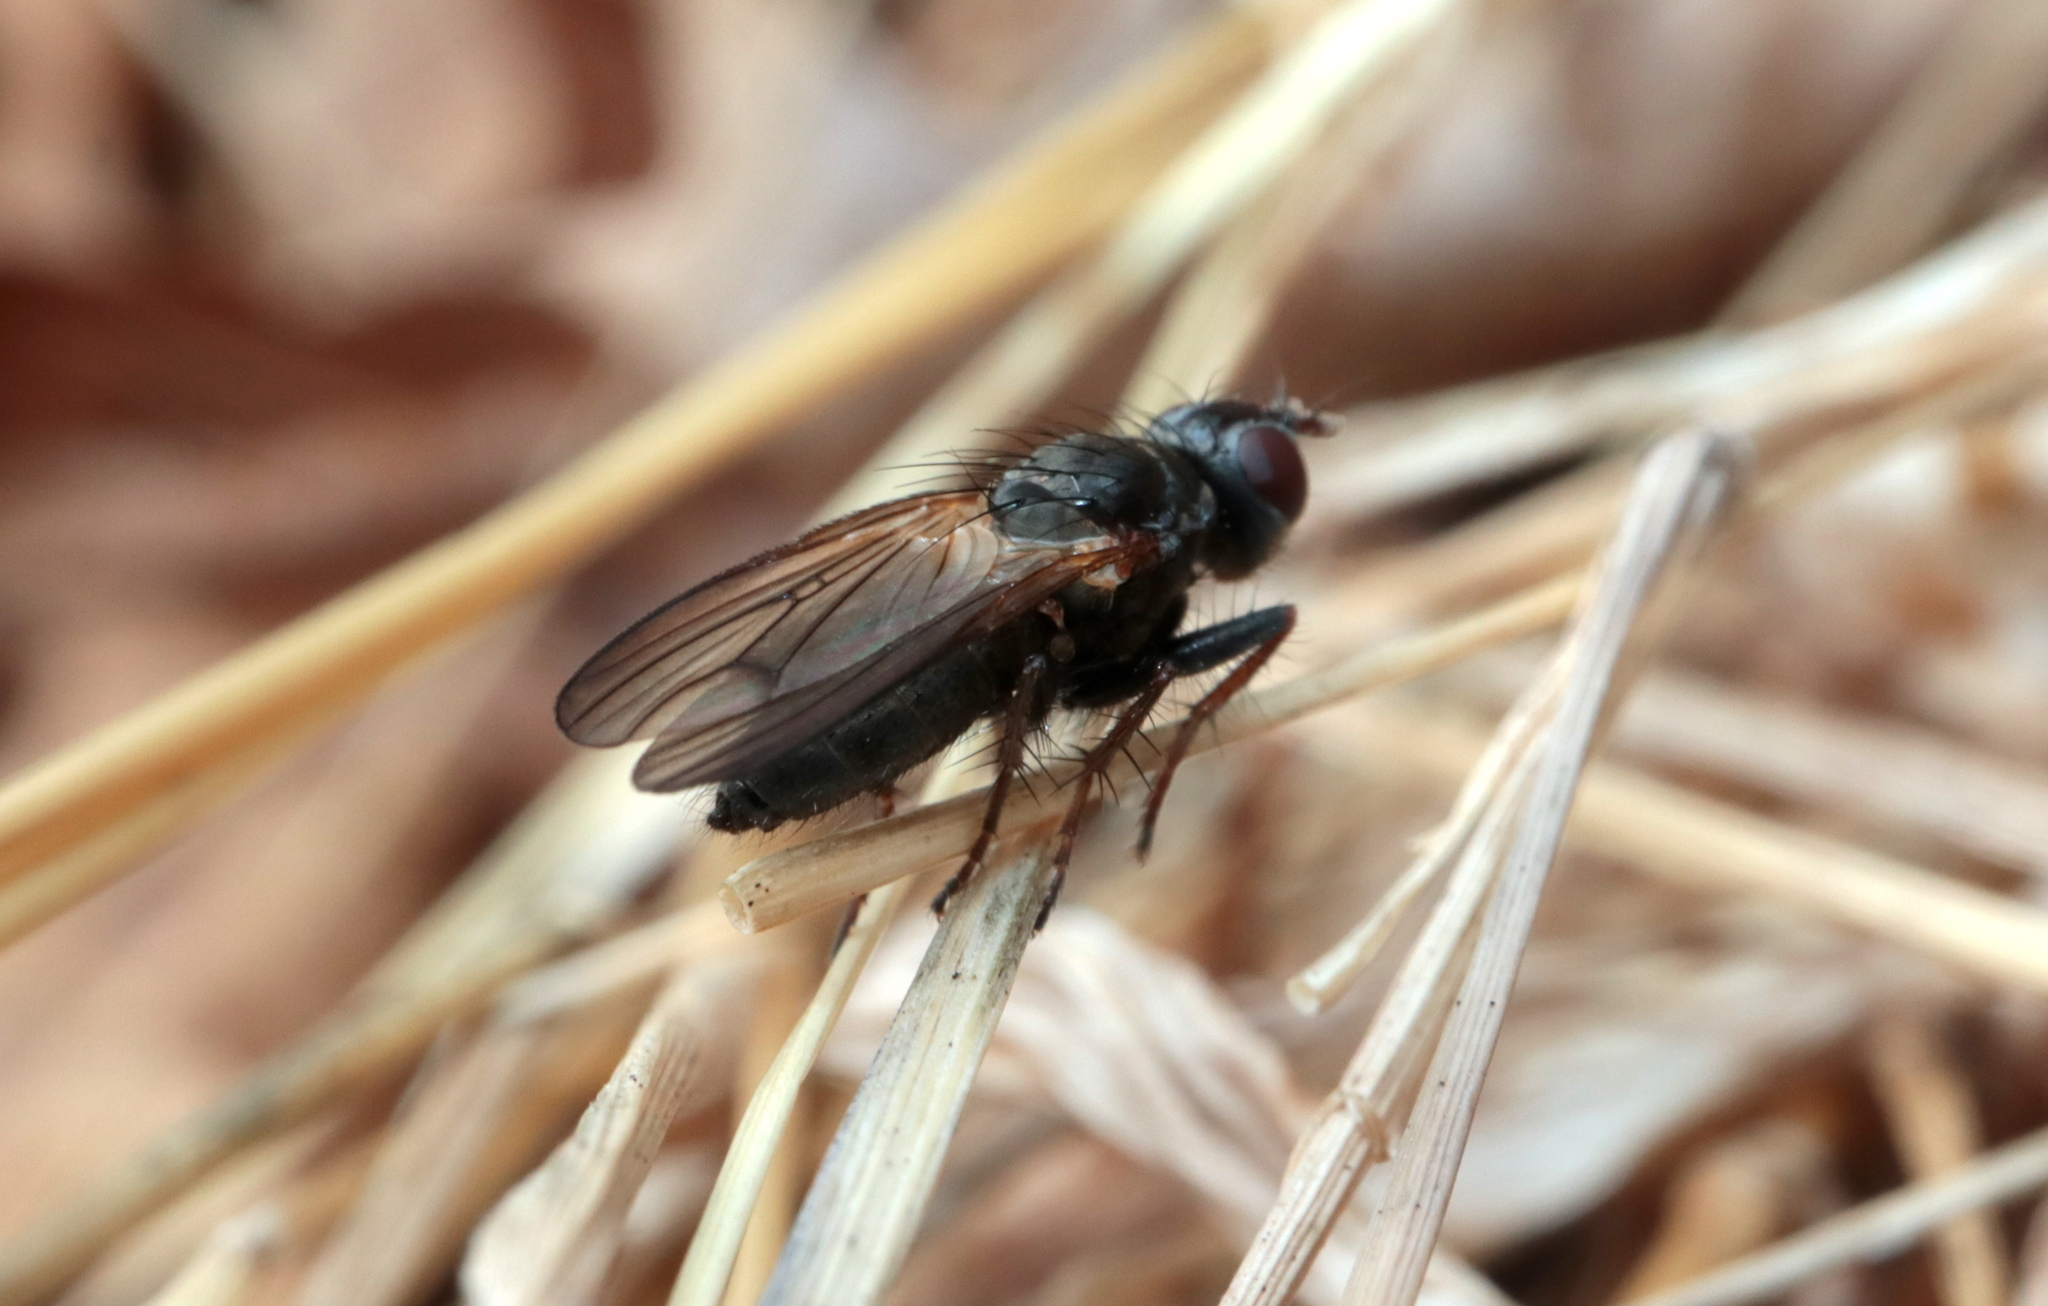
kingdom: Animalia
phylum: Arthropoda
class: Insecta
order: Diptera
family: Scathophagidae
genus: Bucephalina
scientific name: Bucephalina megacephala
